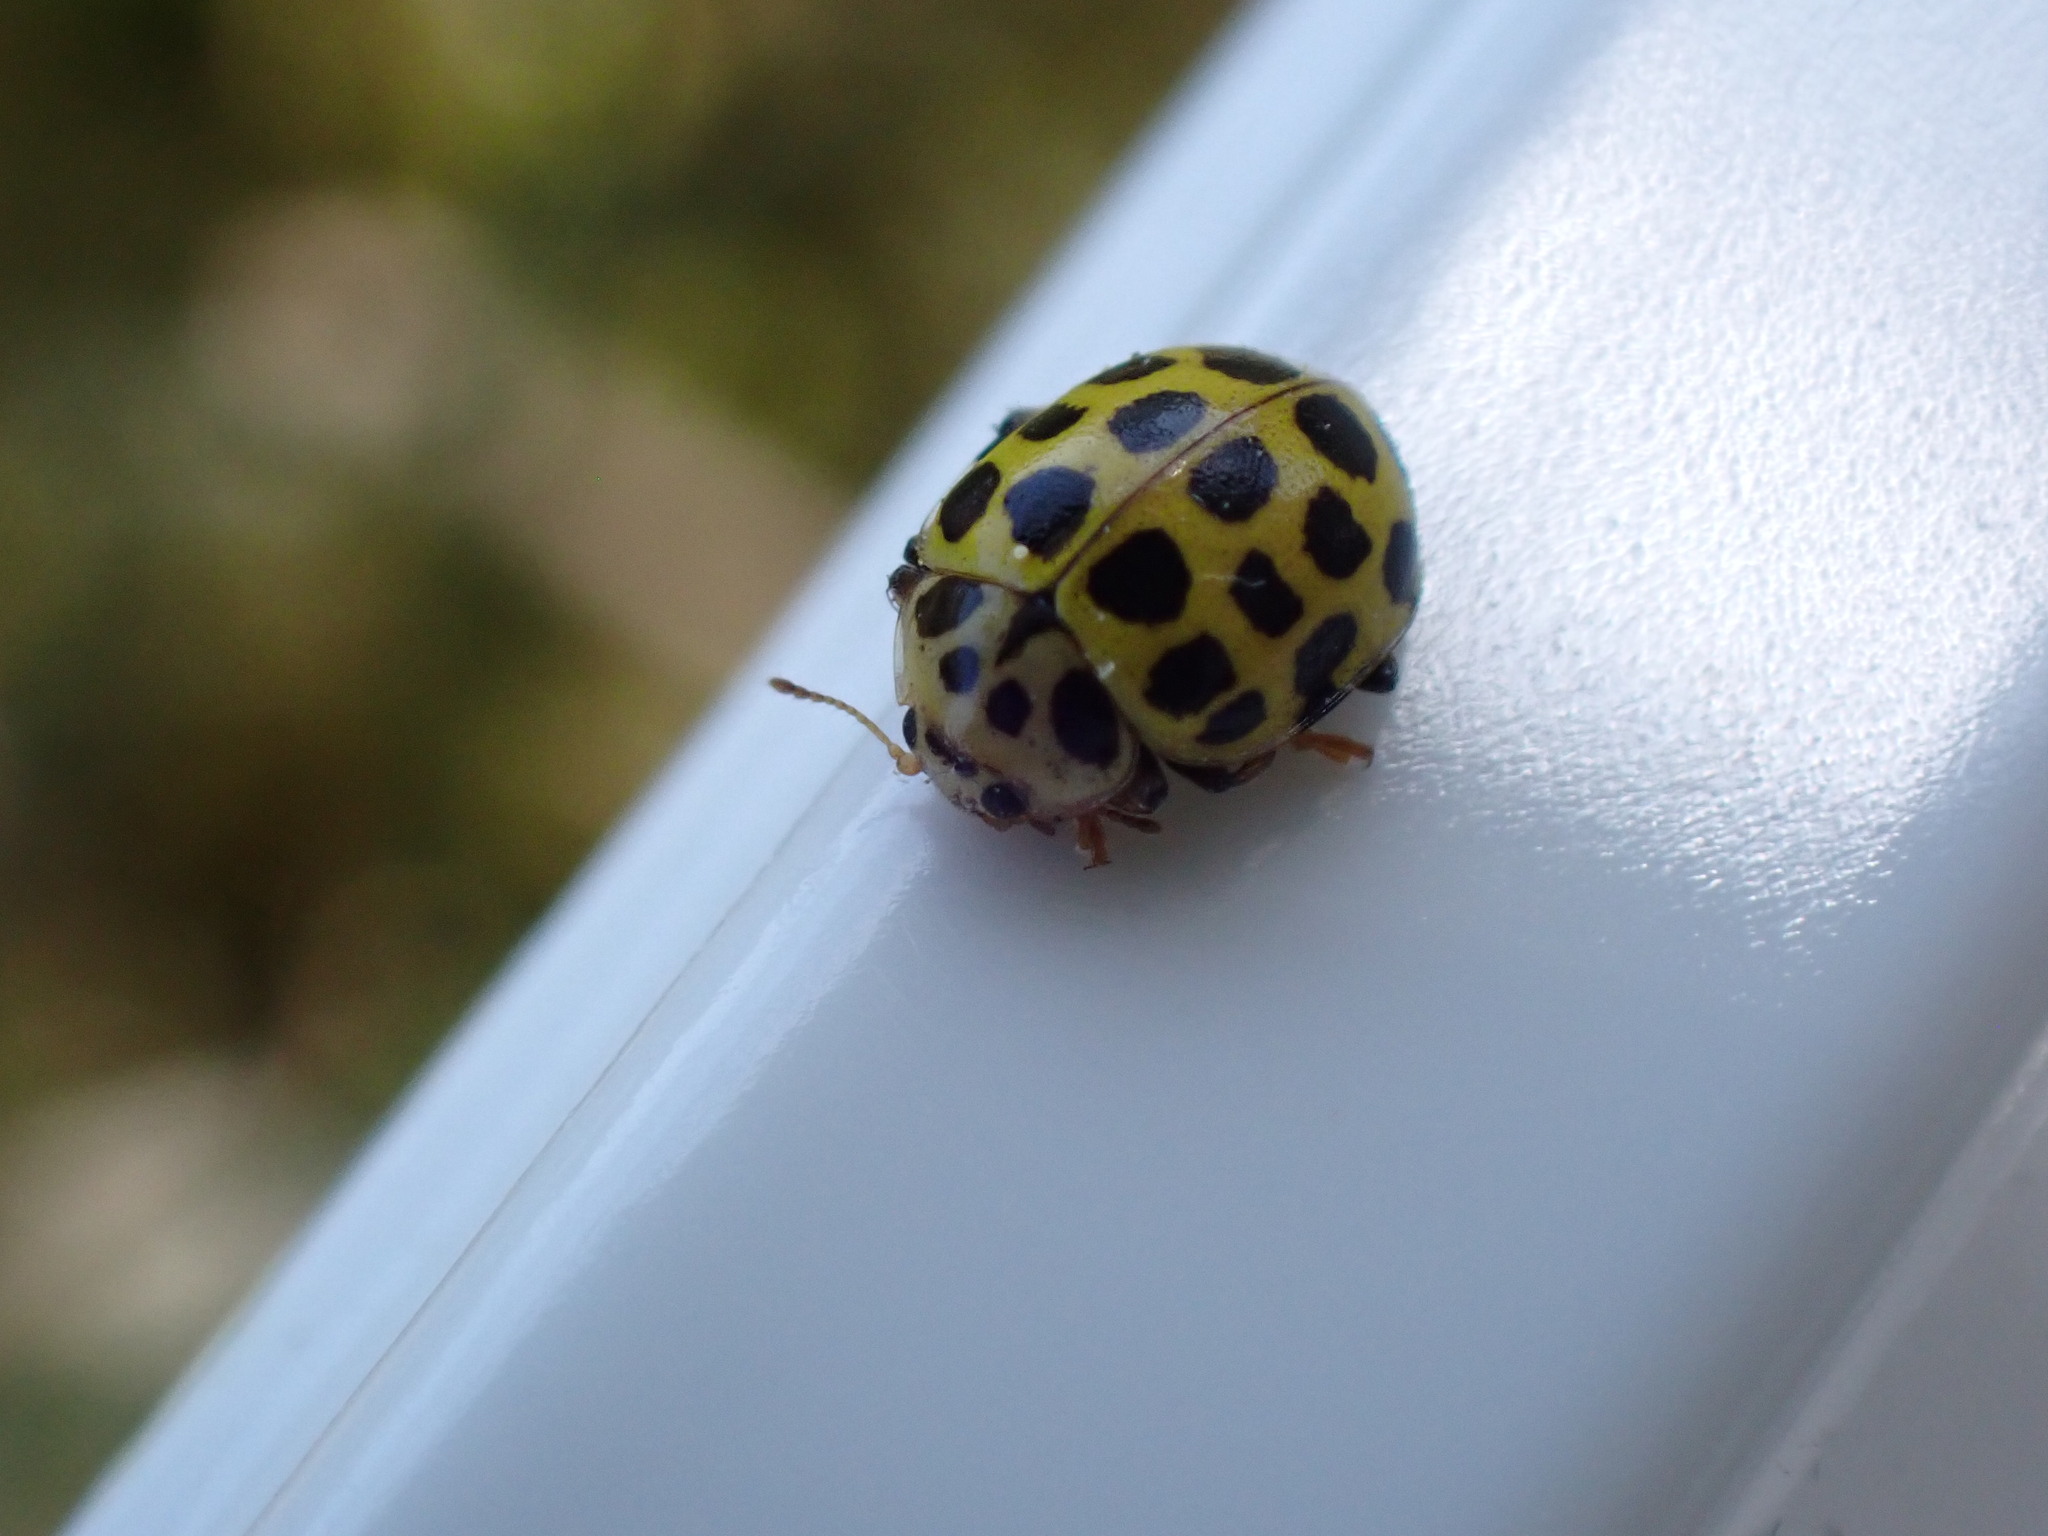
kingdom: Animalia
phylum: Arthropoda
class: Insecta
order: Coleoptera
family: Coccinellidae
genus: Psyllobora
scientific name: Psyllobora vigintiduopunctata
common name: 22-spot ladybird
